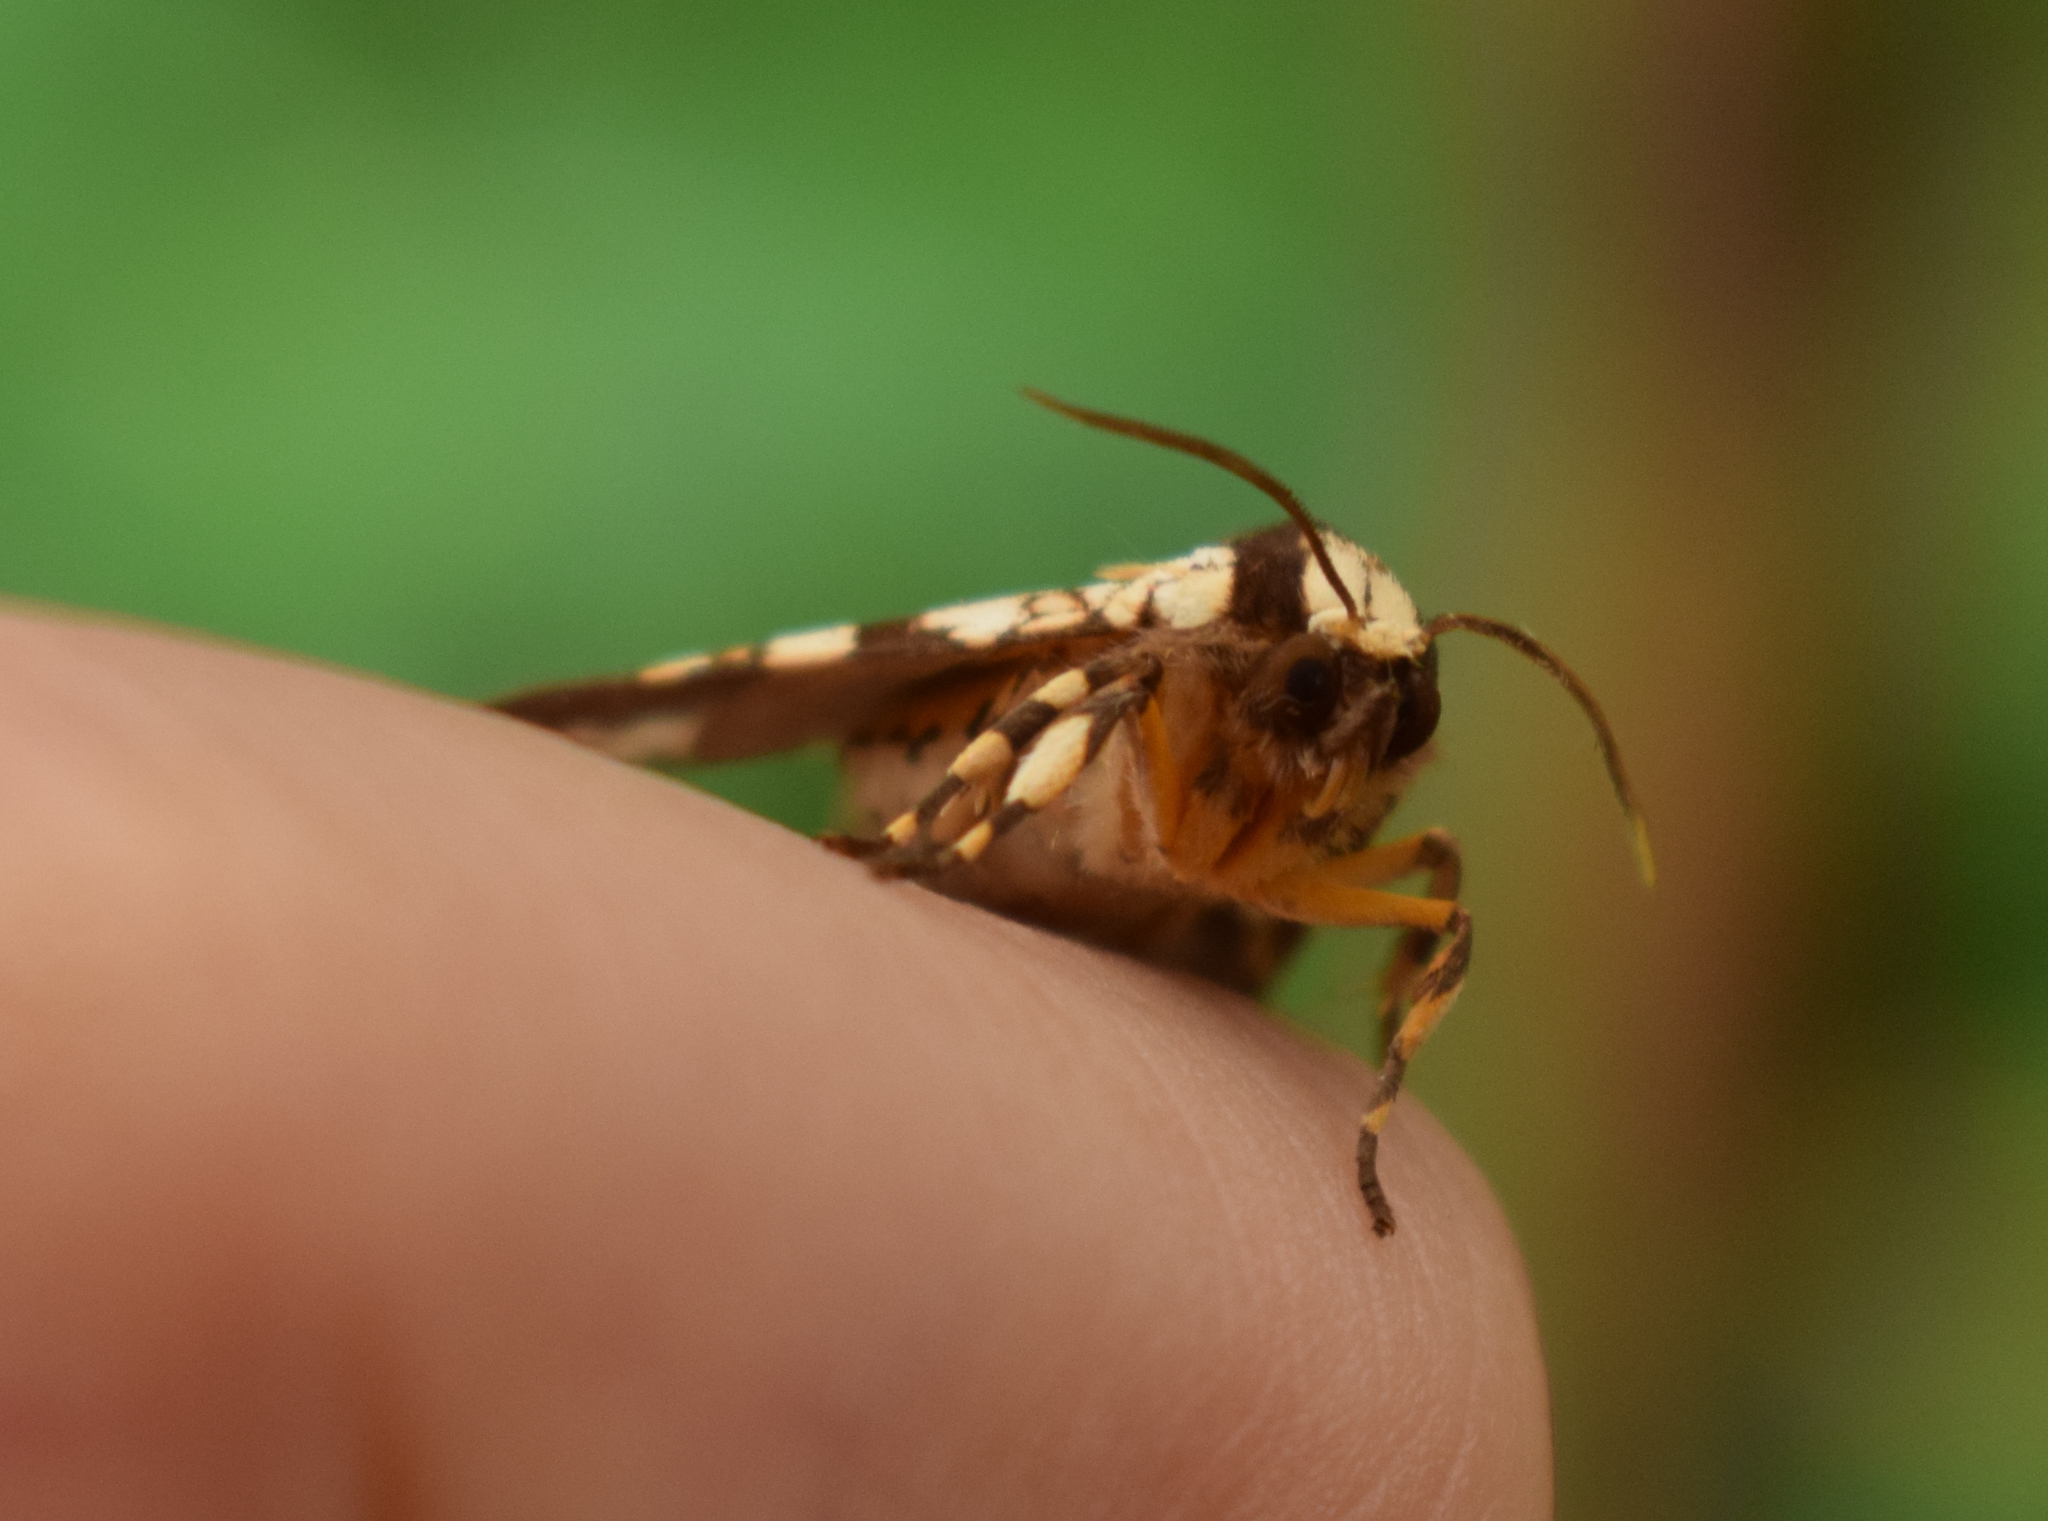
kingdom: Animalia
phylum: Arthropoda
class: Insecta
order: Lepidoptera
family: Erebidae
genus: Carathis
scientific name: Carathis byblis
